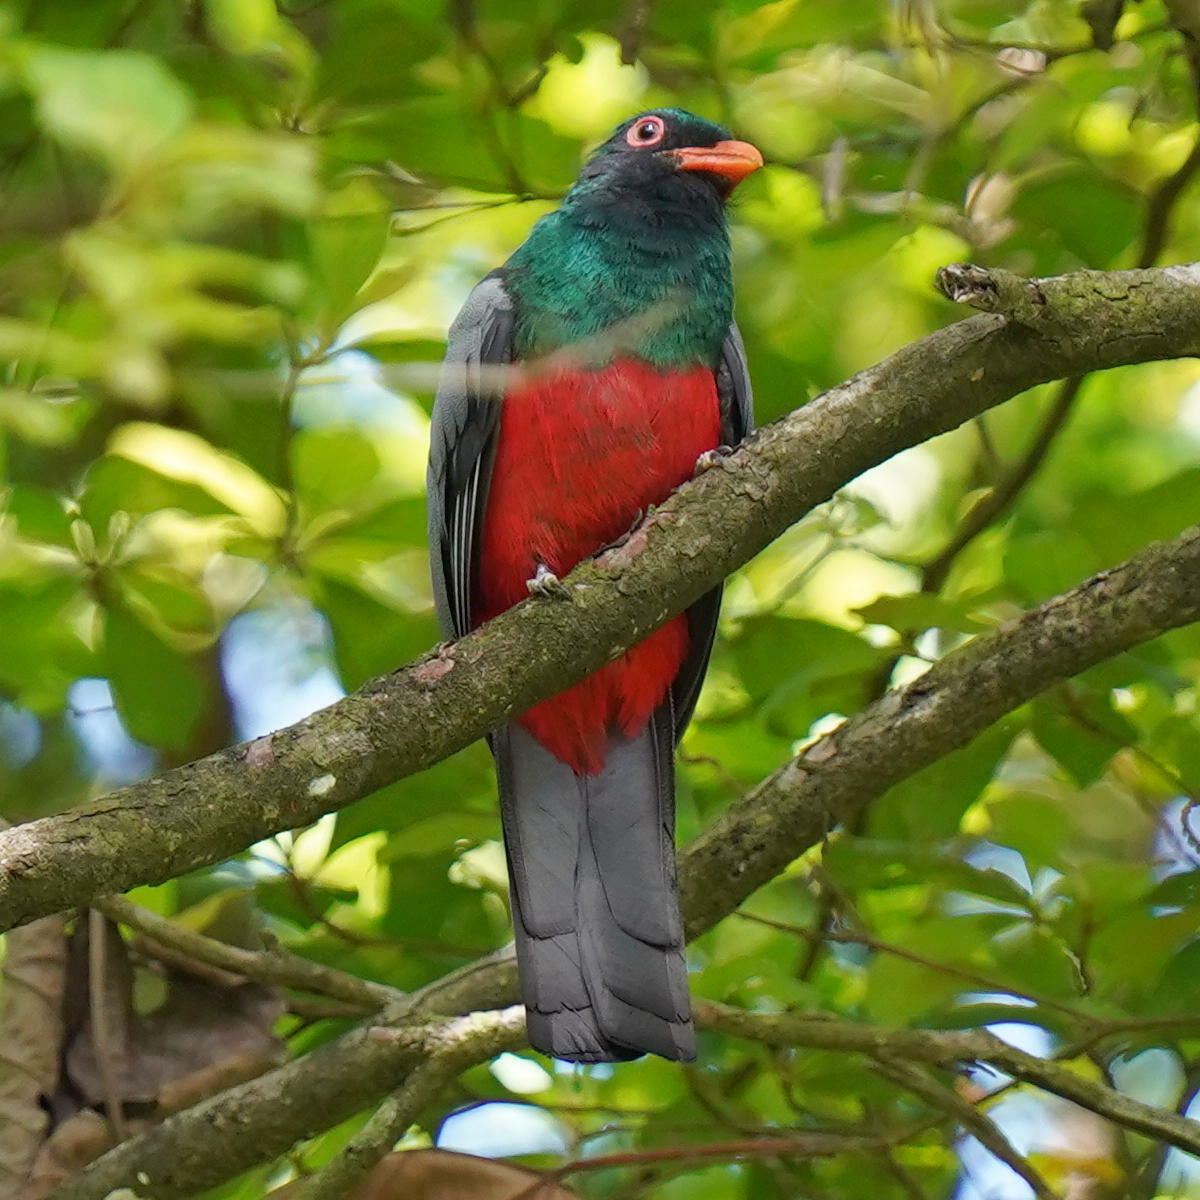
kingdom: Animalia
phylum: Chordata
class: Aves
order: Trogoniformes
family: Trogonidae
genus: Trogon
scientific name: Trogon massena
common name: Slaty-tailed trogon
